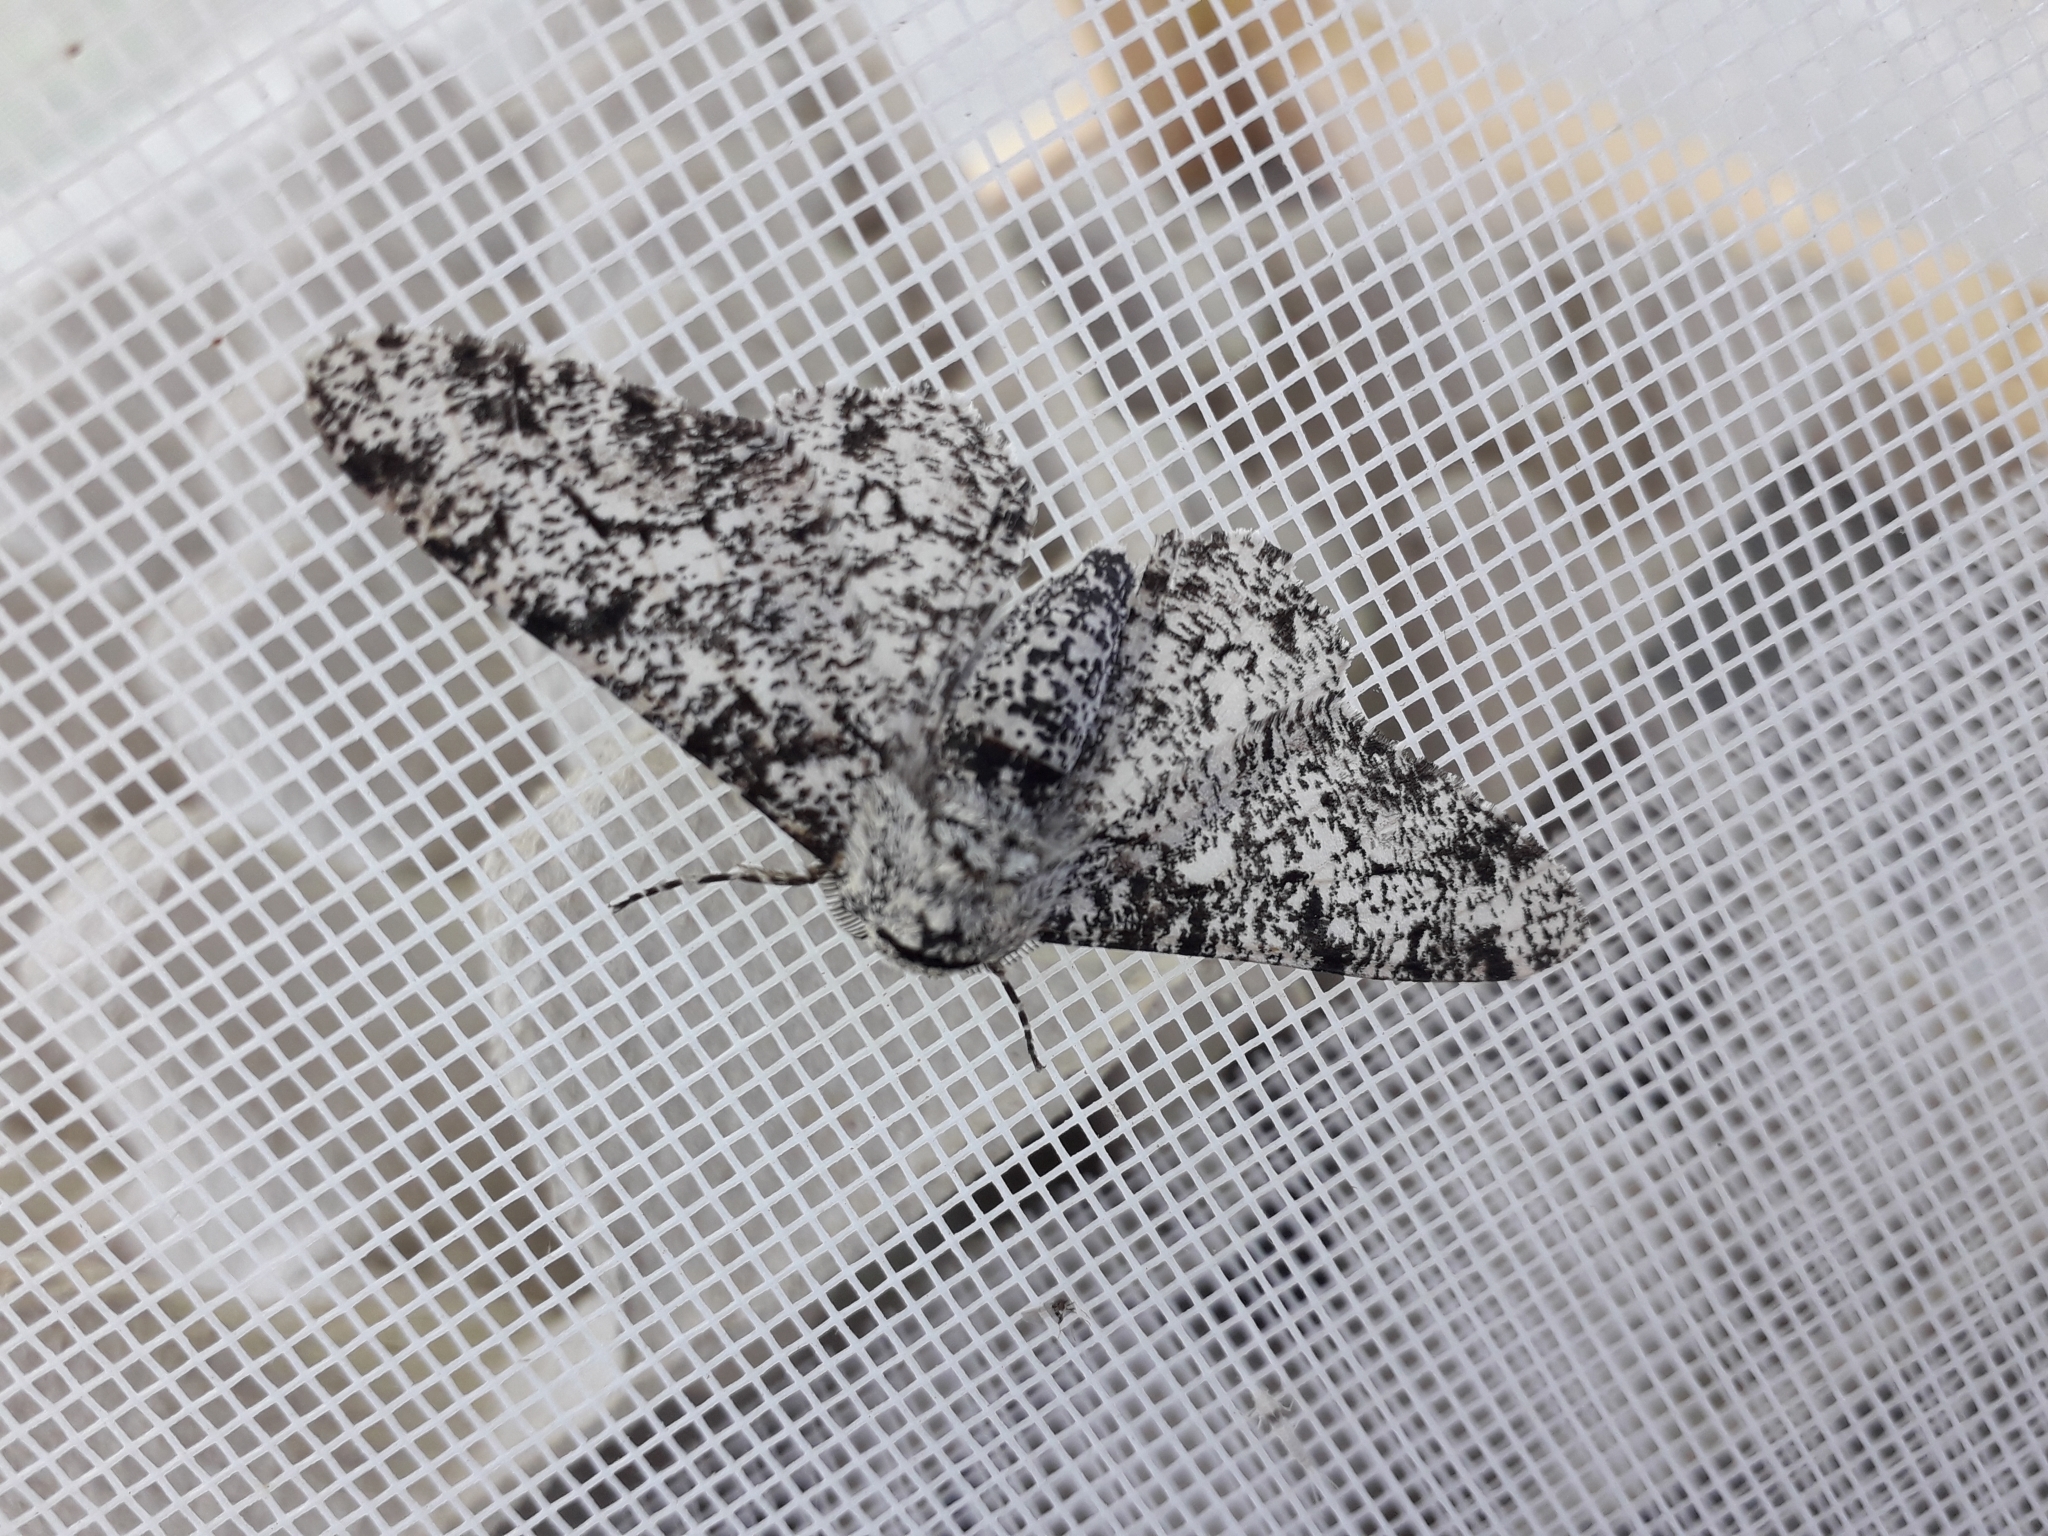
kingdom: Animalia
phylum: Arthropoda
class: Insecta
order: Lepidoptera
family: Geometridae
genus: Biston
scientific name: Biston betularia
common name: Peppered moth
